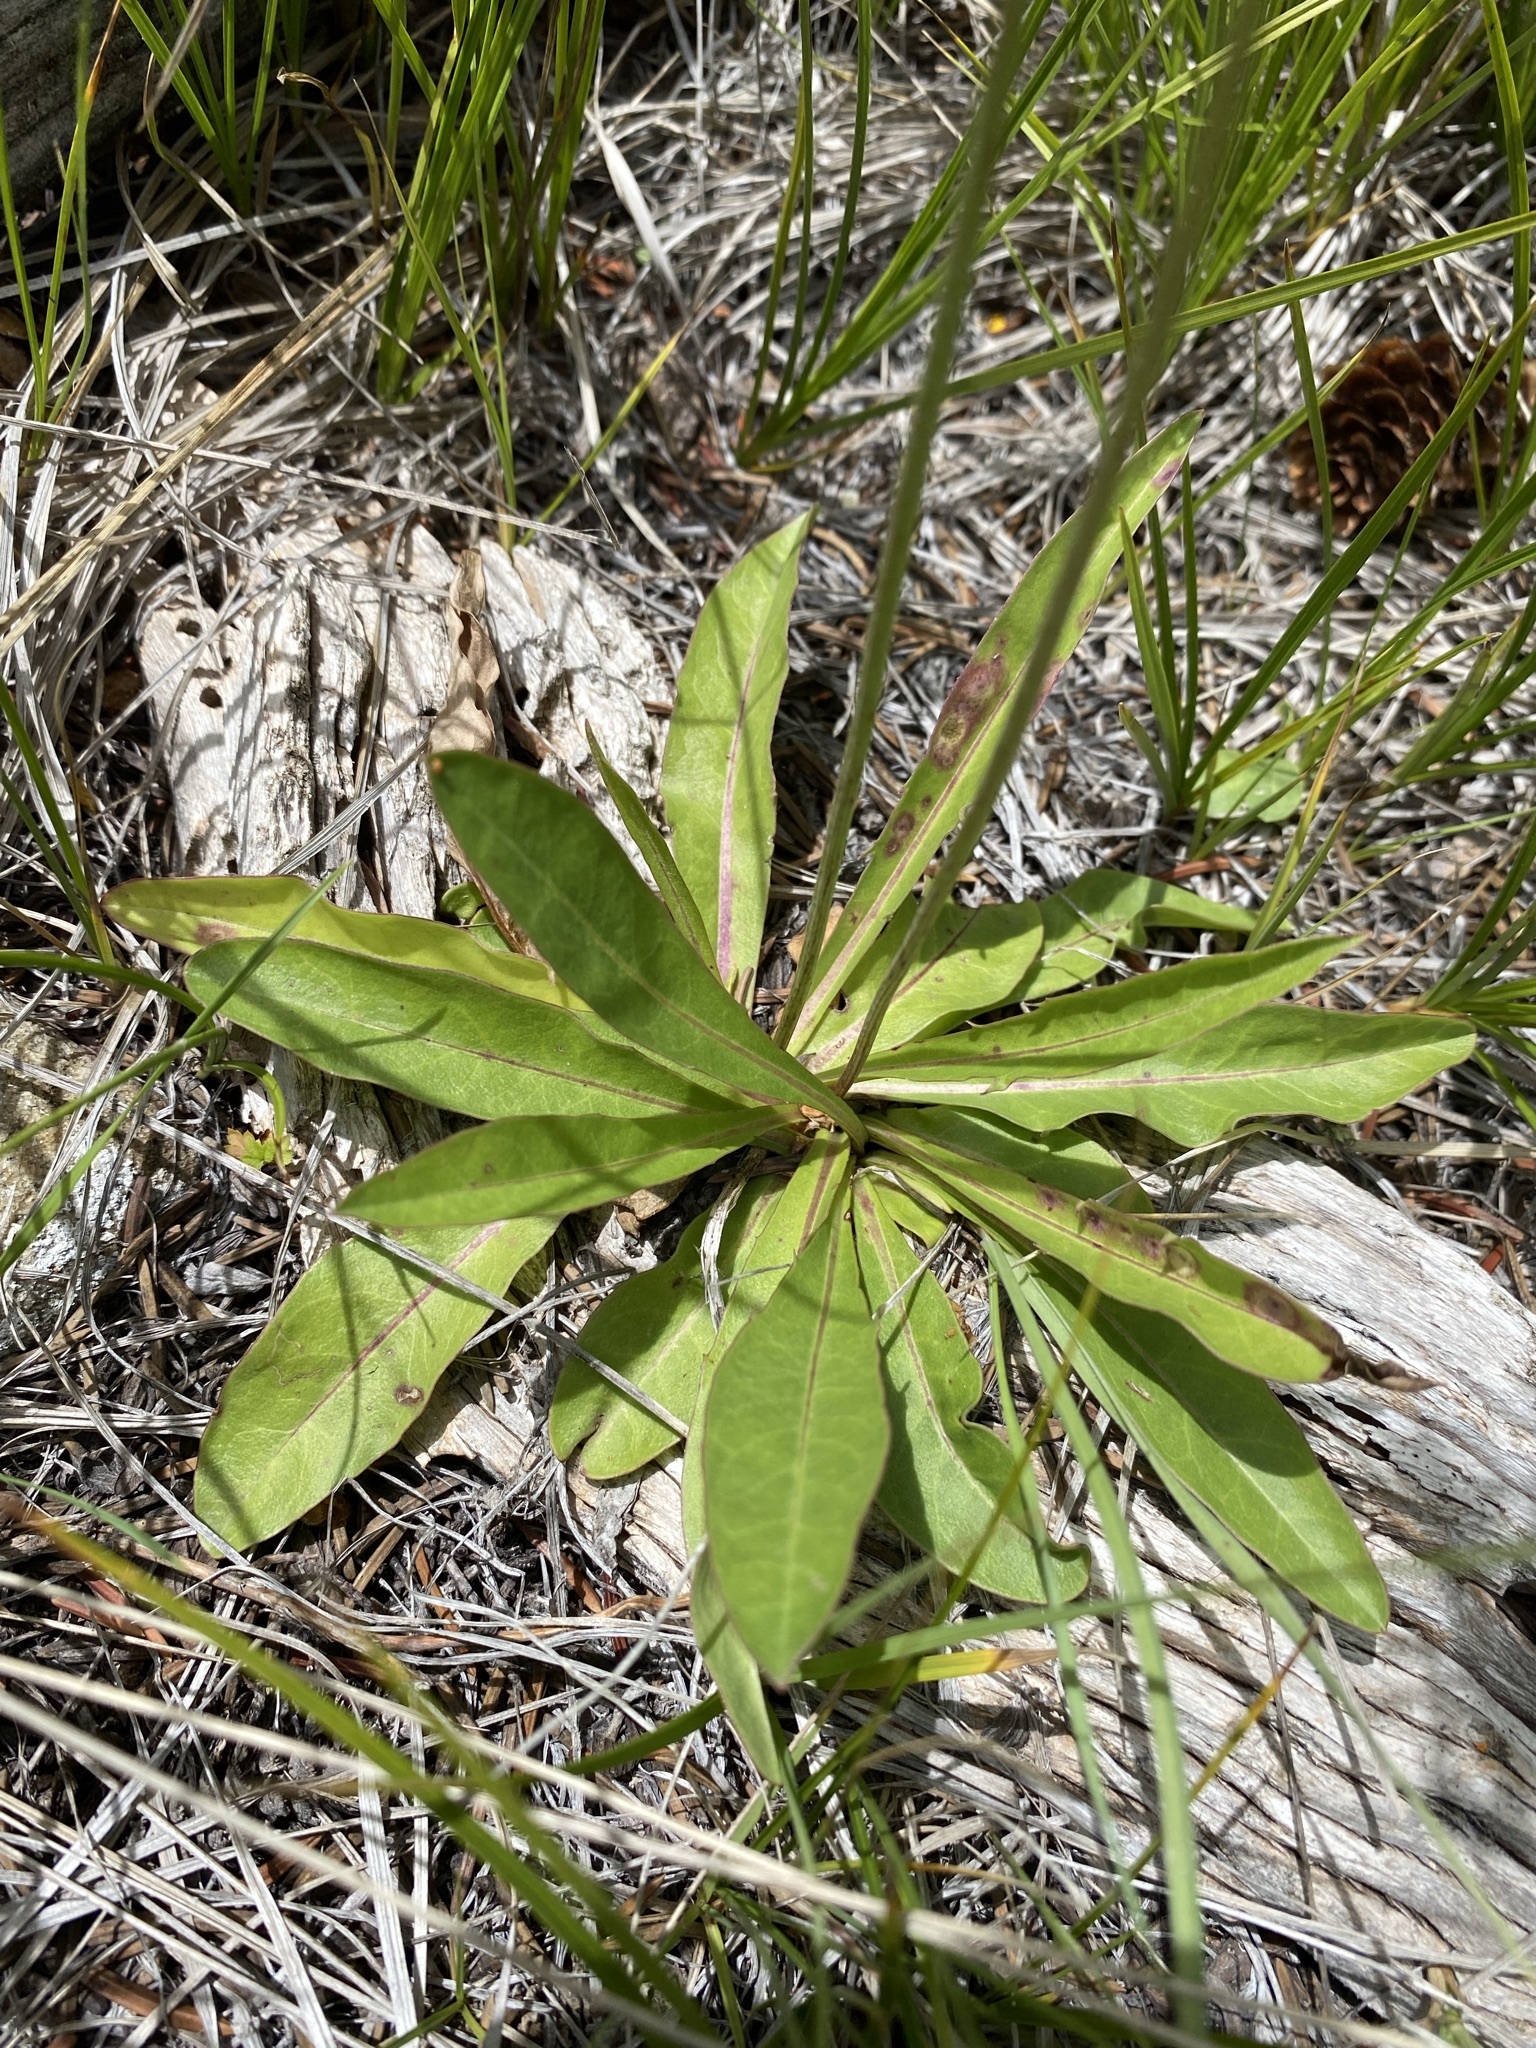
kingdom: Plantae
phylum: Tracheophyta
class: Magnoliopsida
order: Asterales
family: Asteraceae
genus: Crepis
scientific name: Crepis runcinata
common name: Dandelion hawksbeard
